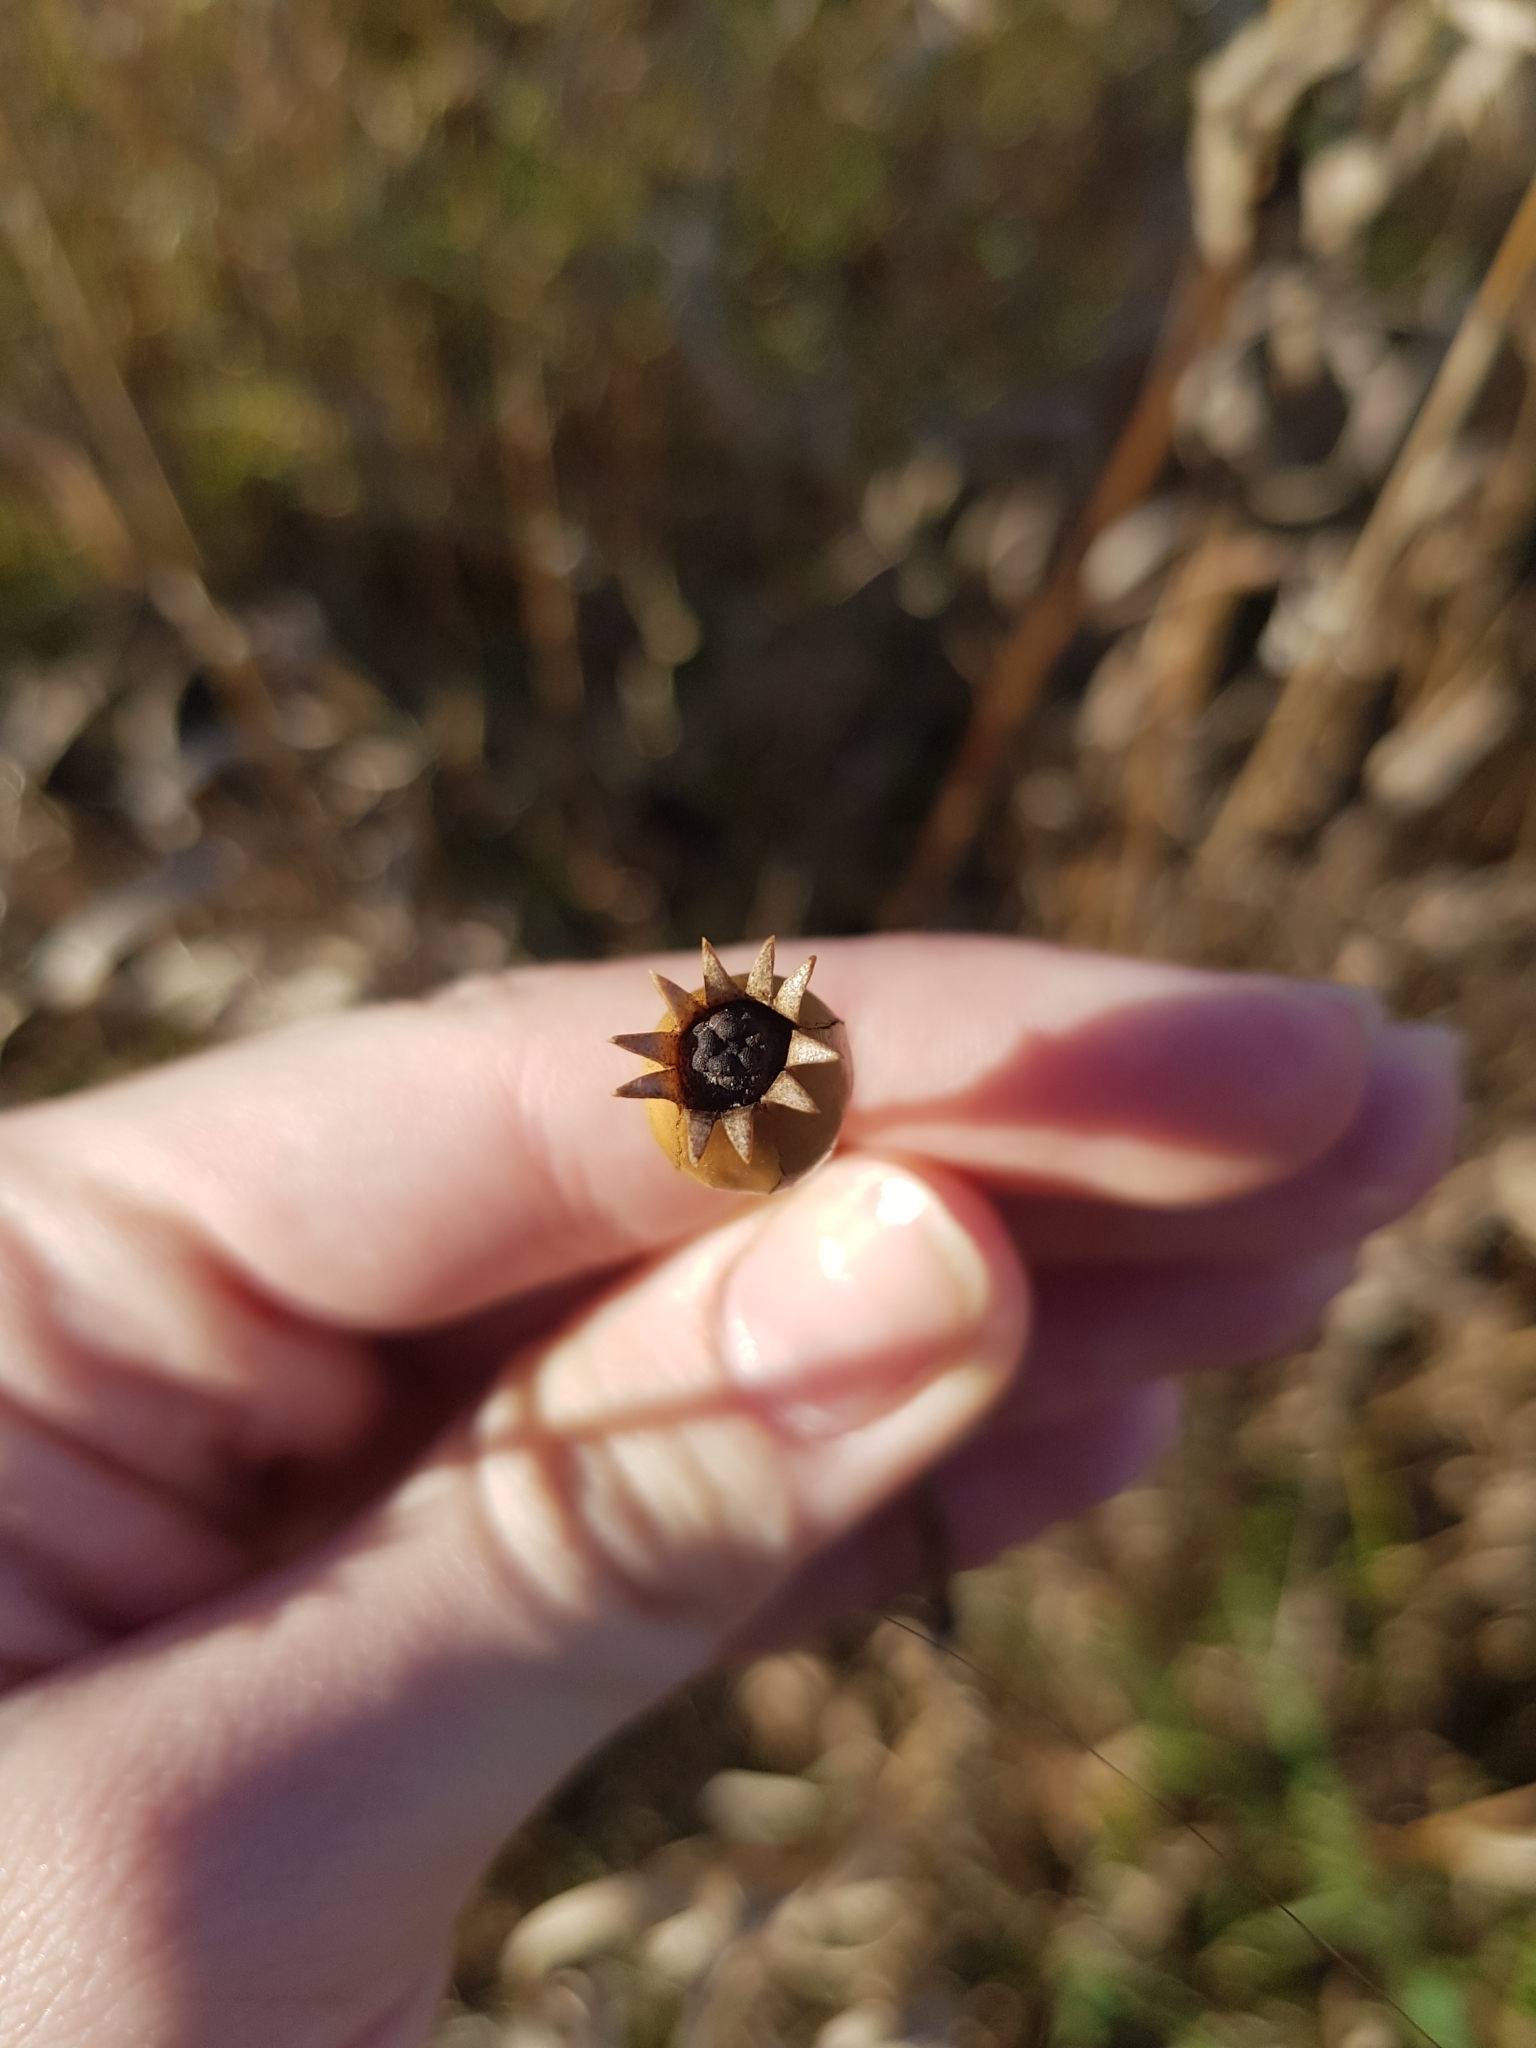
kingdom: Plantae
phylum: Tracheophyta
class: Magnoliopsida
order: Caryophyllales
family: Caryophyllaceae
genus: Silene
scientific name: Silene latifolia
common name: White campion
